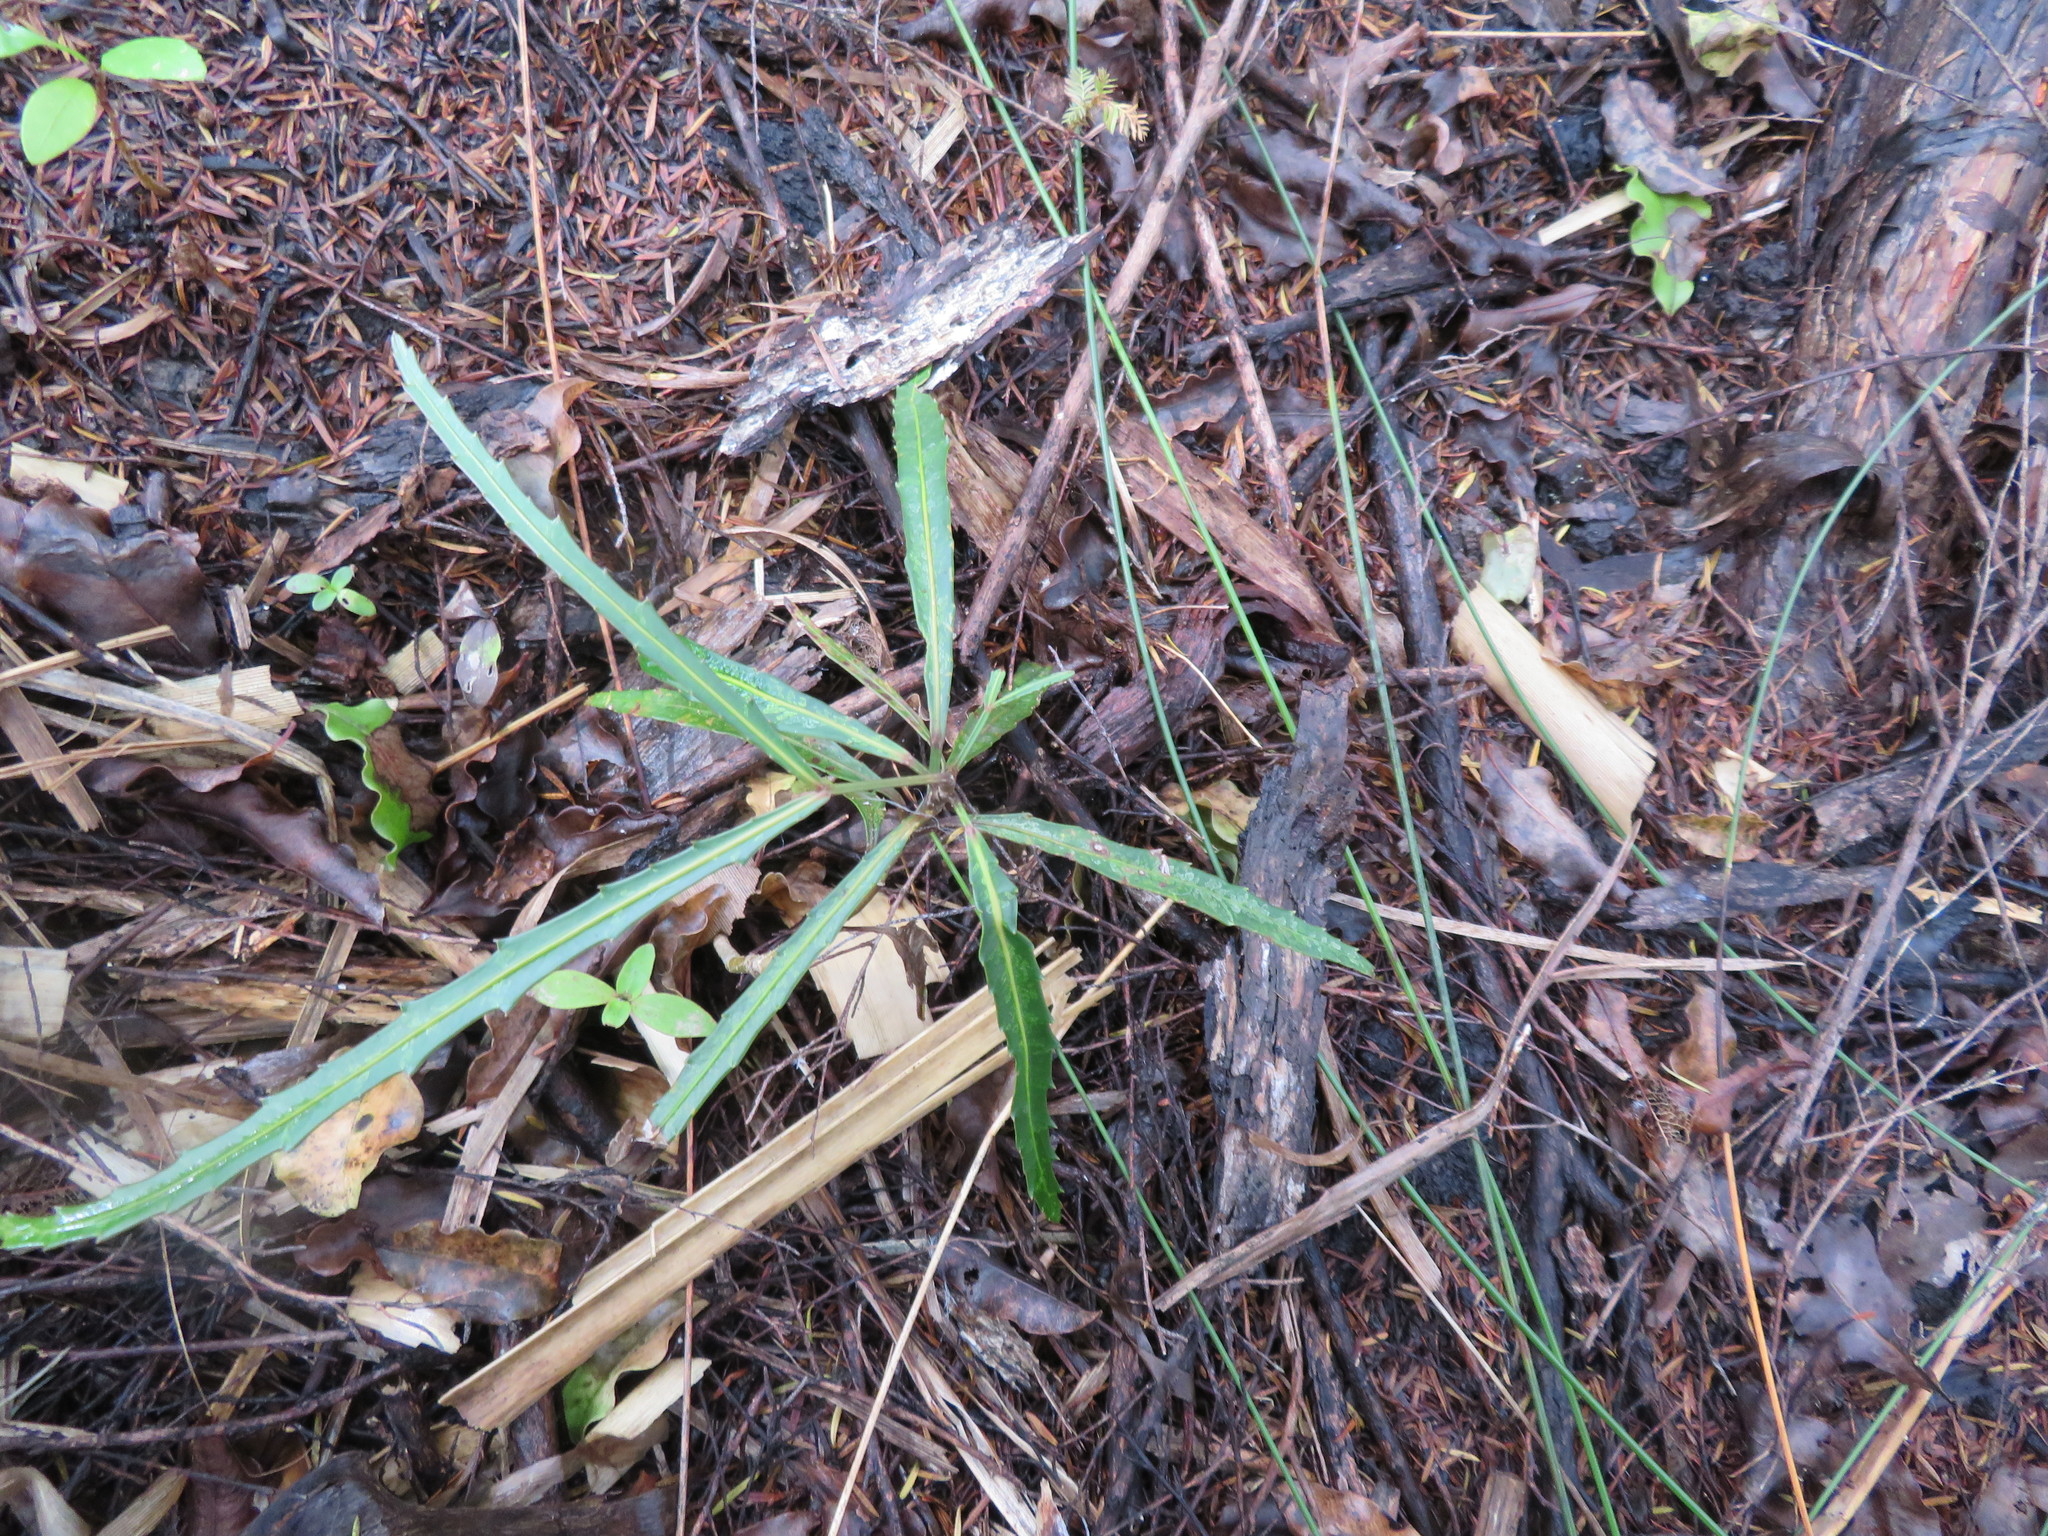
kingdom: Plantae
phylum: Tracheophyta
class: Magnoliopsida
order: Apiales
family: Araliaceae
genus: Pseudopanax
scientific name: Pseudopanax crassifolius
